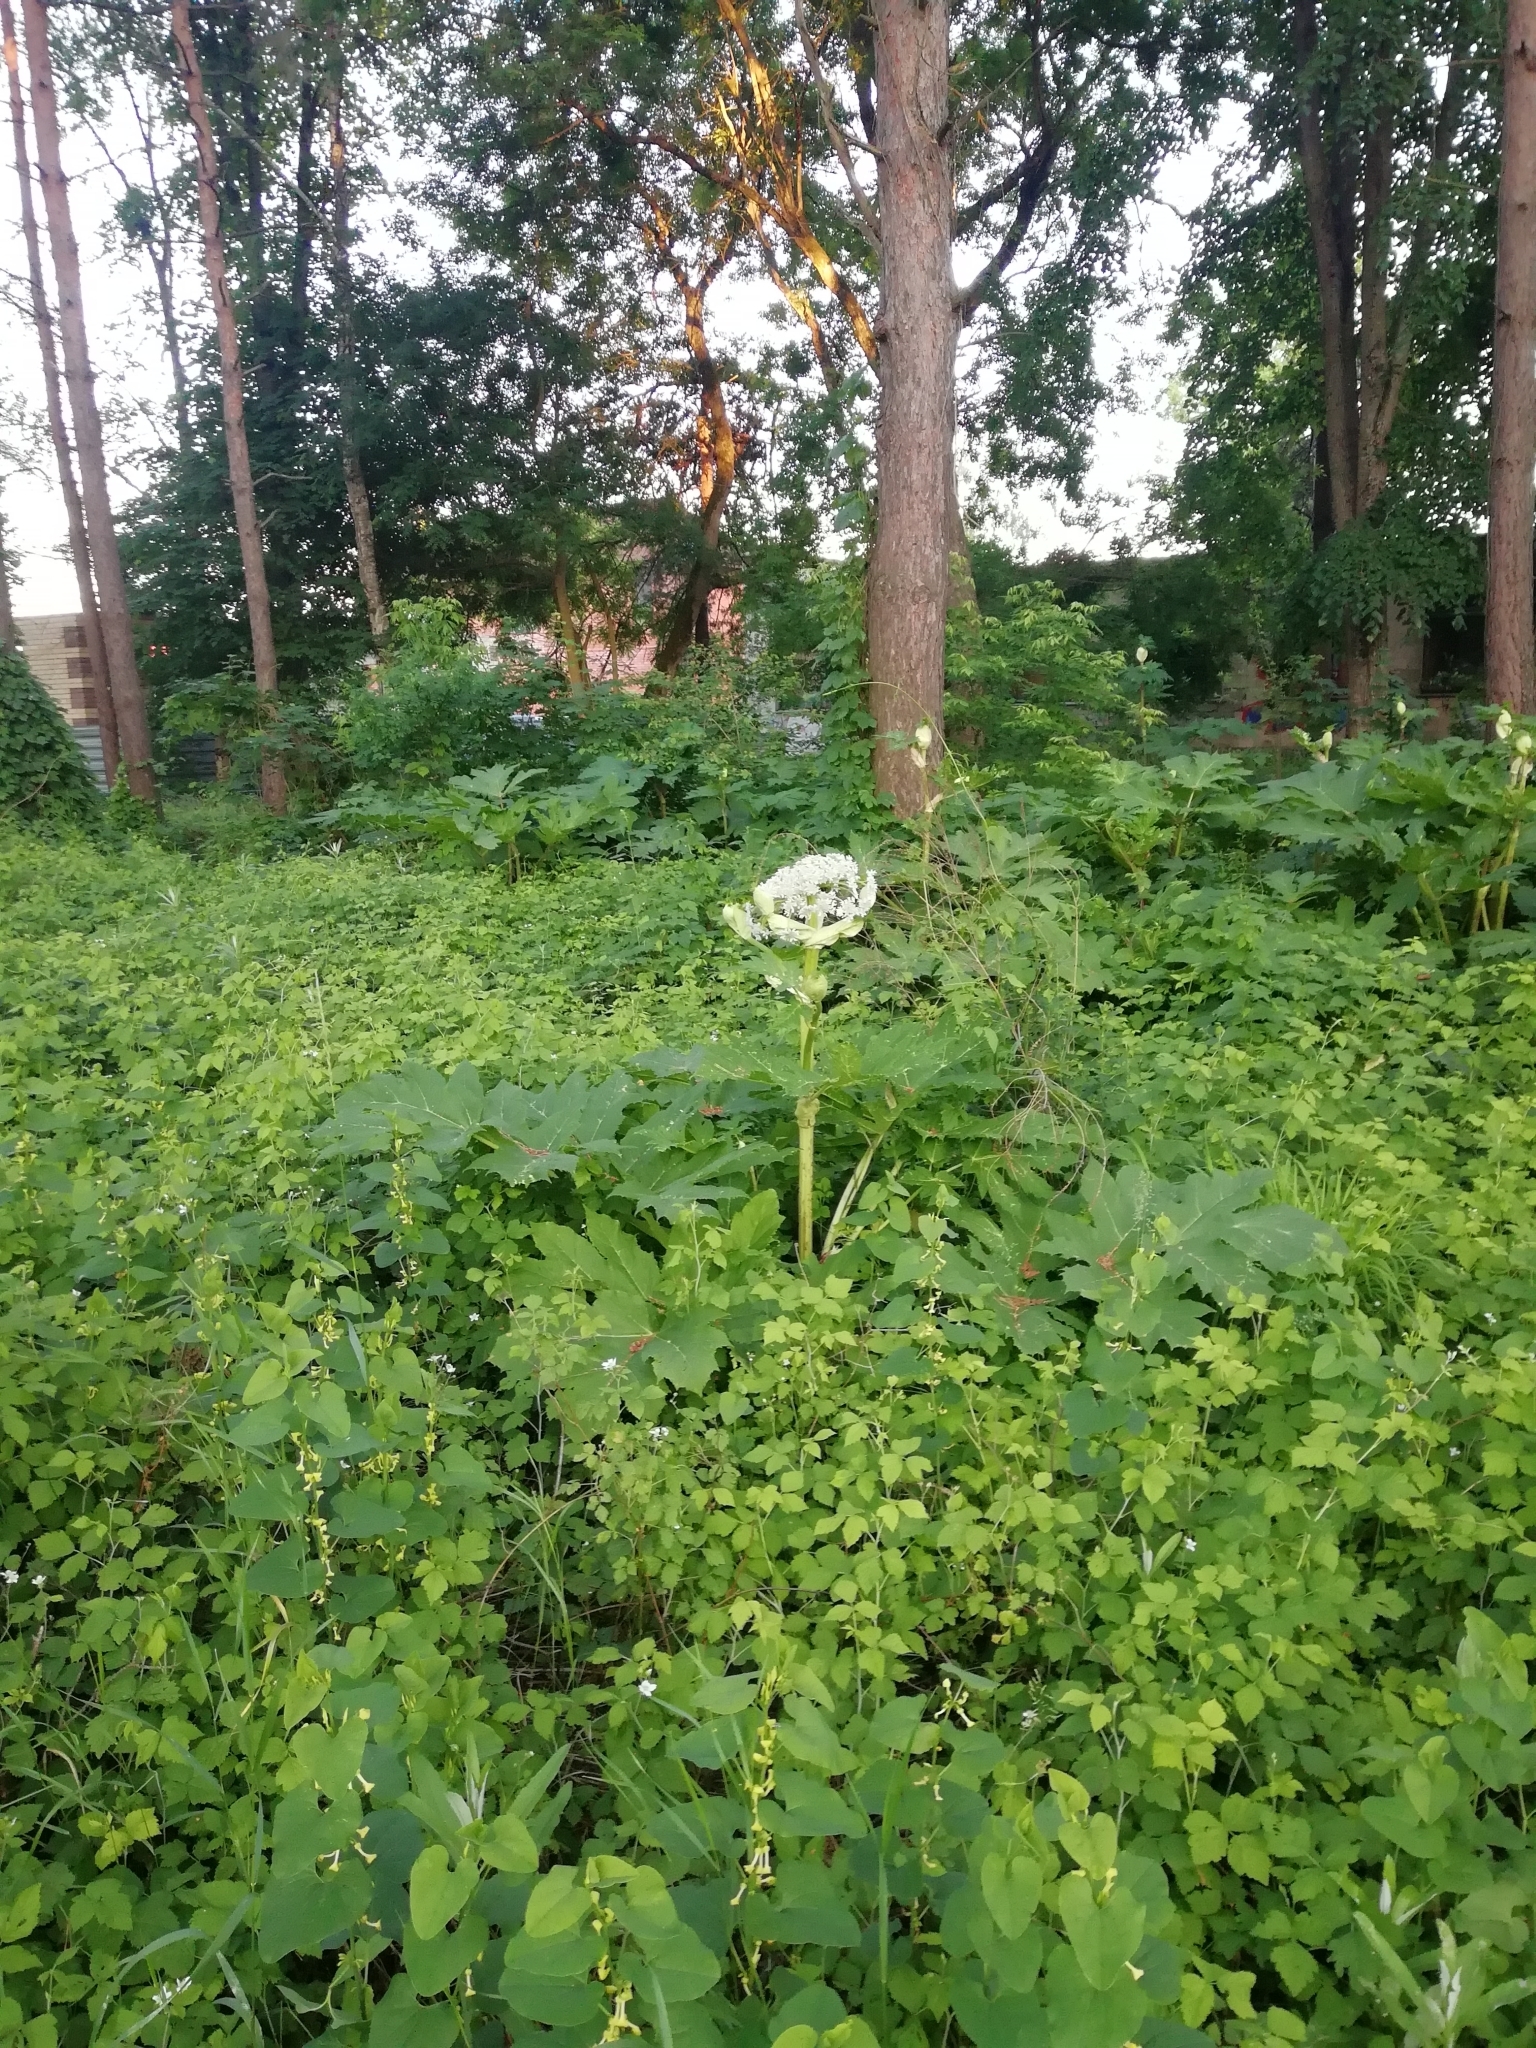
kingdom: Plantae
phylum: Tracheophyta
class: Magnoliopsida
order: Apiales
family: Apiaceae
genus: Heracleum
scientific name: Heracleum sosnowskyi
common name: Sosnowsky's hogweed
